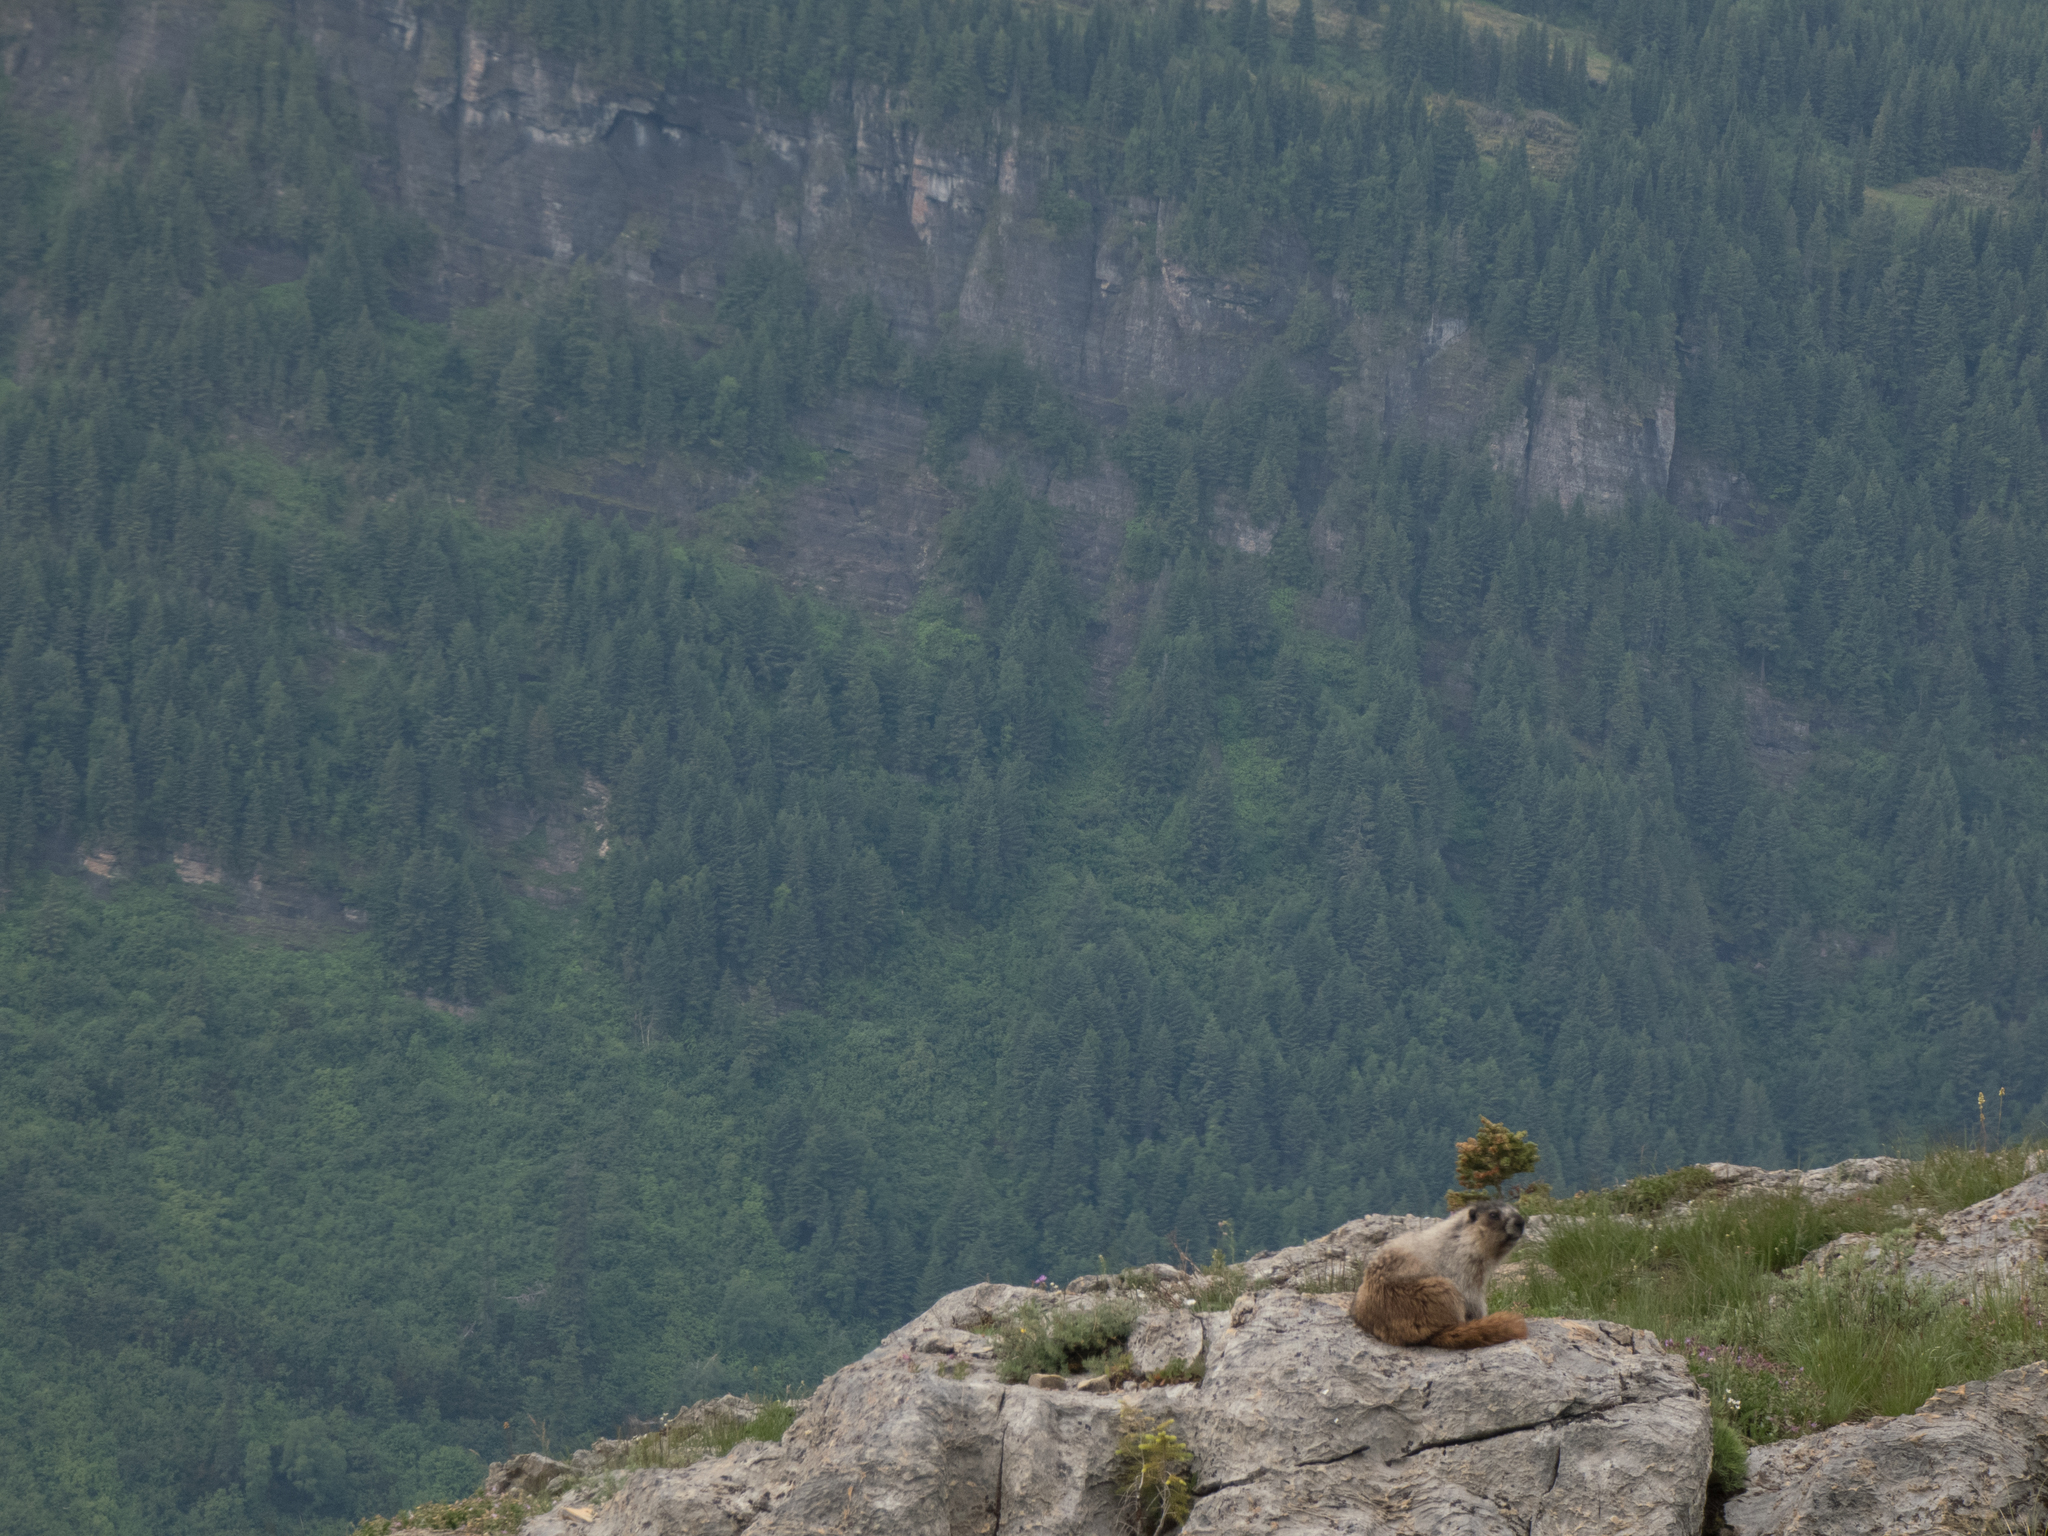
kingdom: Animalia
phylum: Chordata
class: Mammalia
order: Rodentia
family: Sciuridae
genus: Marmota
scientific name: Marmota caligata
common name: Hoary marmot
